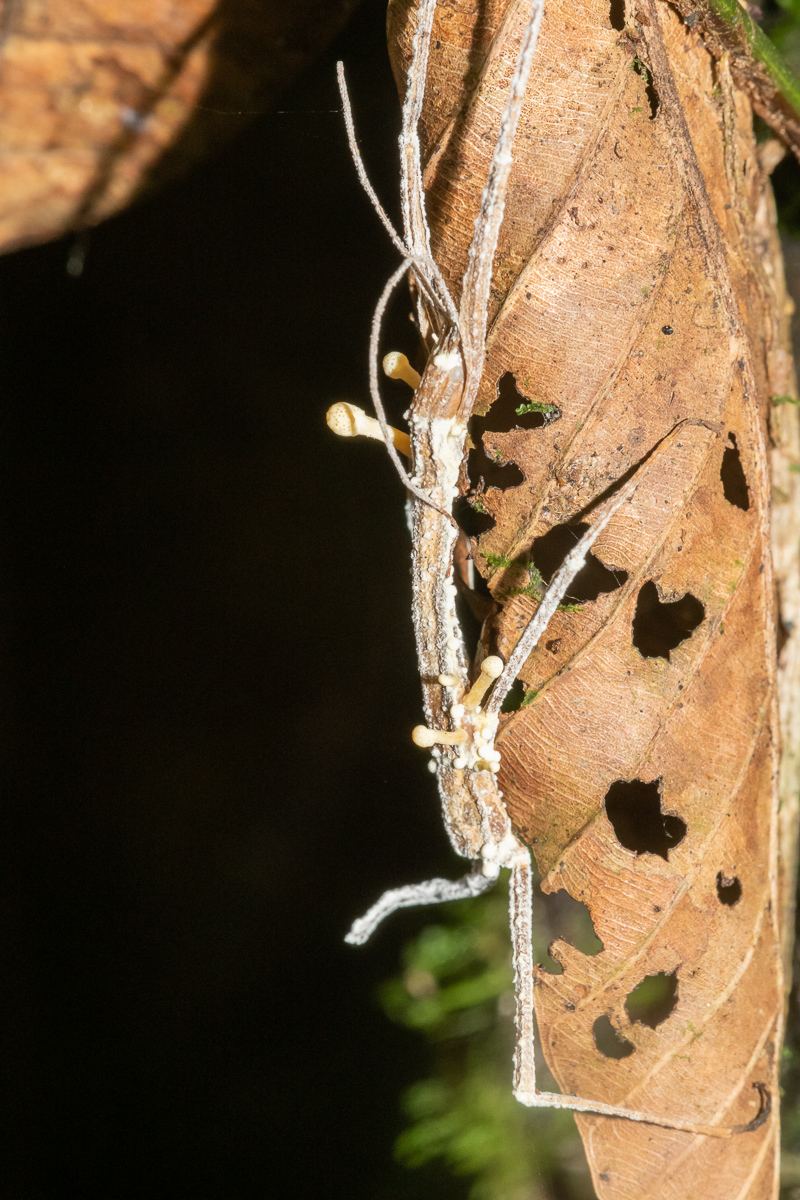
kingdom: Fungi
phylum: Ascomycota
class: Sordariomycetes
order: Hypocreales
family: Cordycipitaceae
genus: Beauveria
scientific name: Beauveria diapheromeriphila
